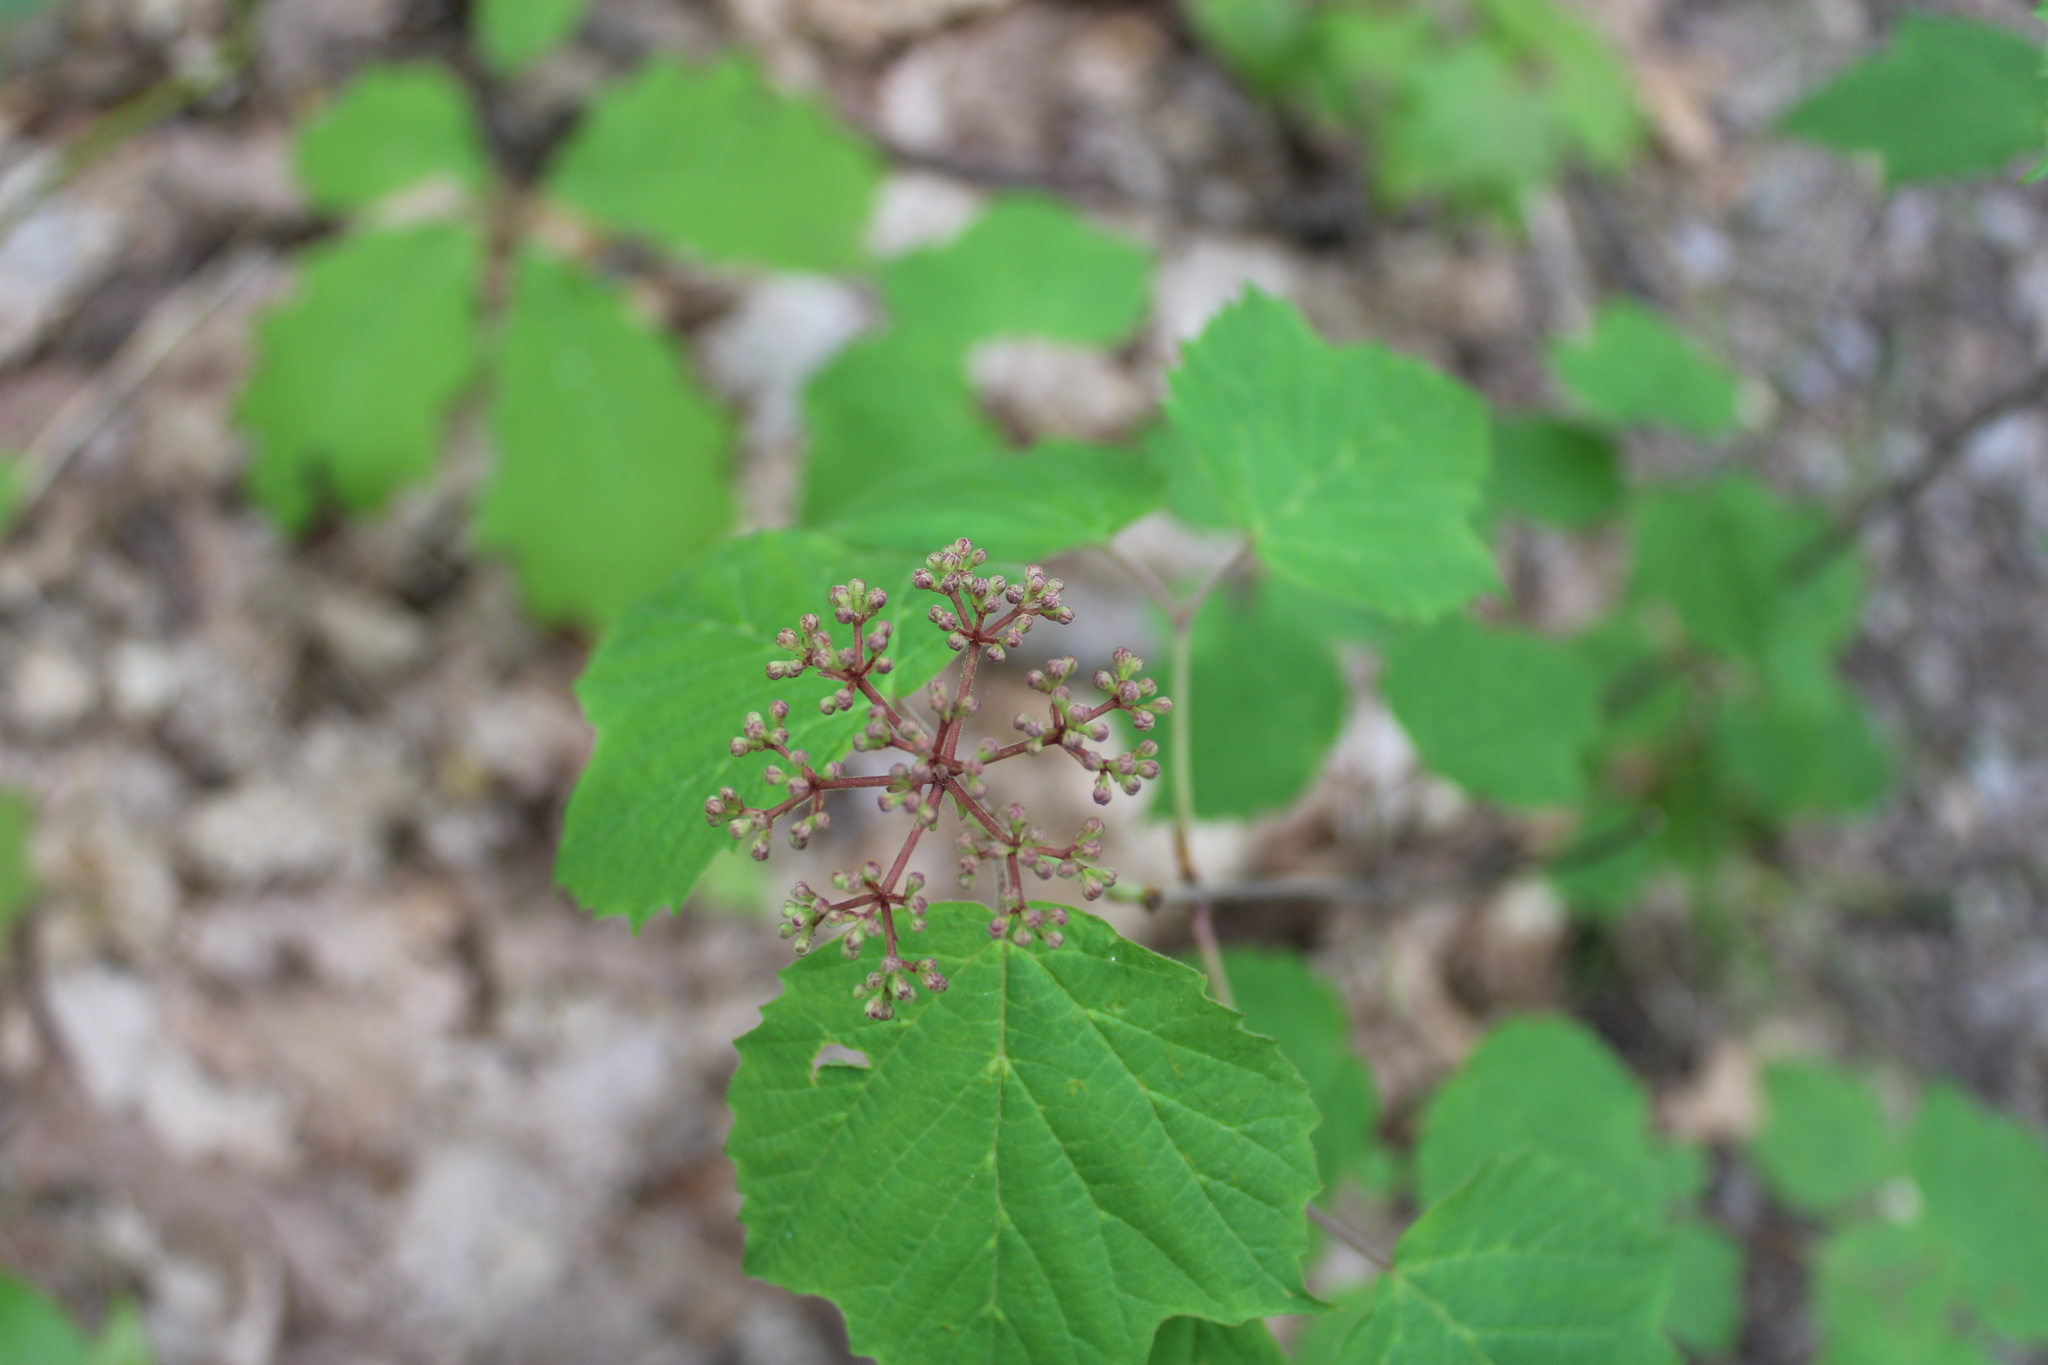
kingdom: Plantae
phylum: Tracheophyta
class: Magnoliopsida
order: Dipsacales
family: Viburnaceae
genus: Viburnum
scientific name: Viburnum acerifolium
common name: Dockmackie
